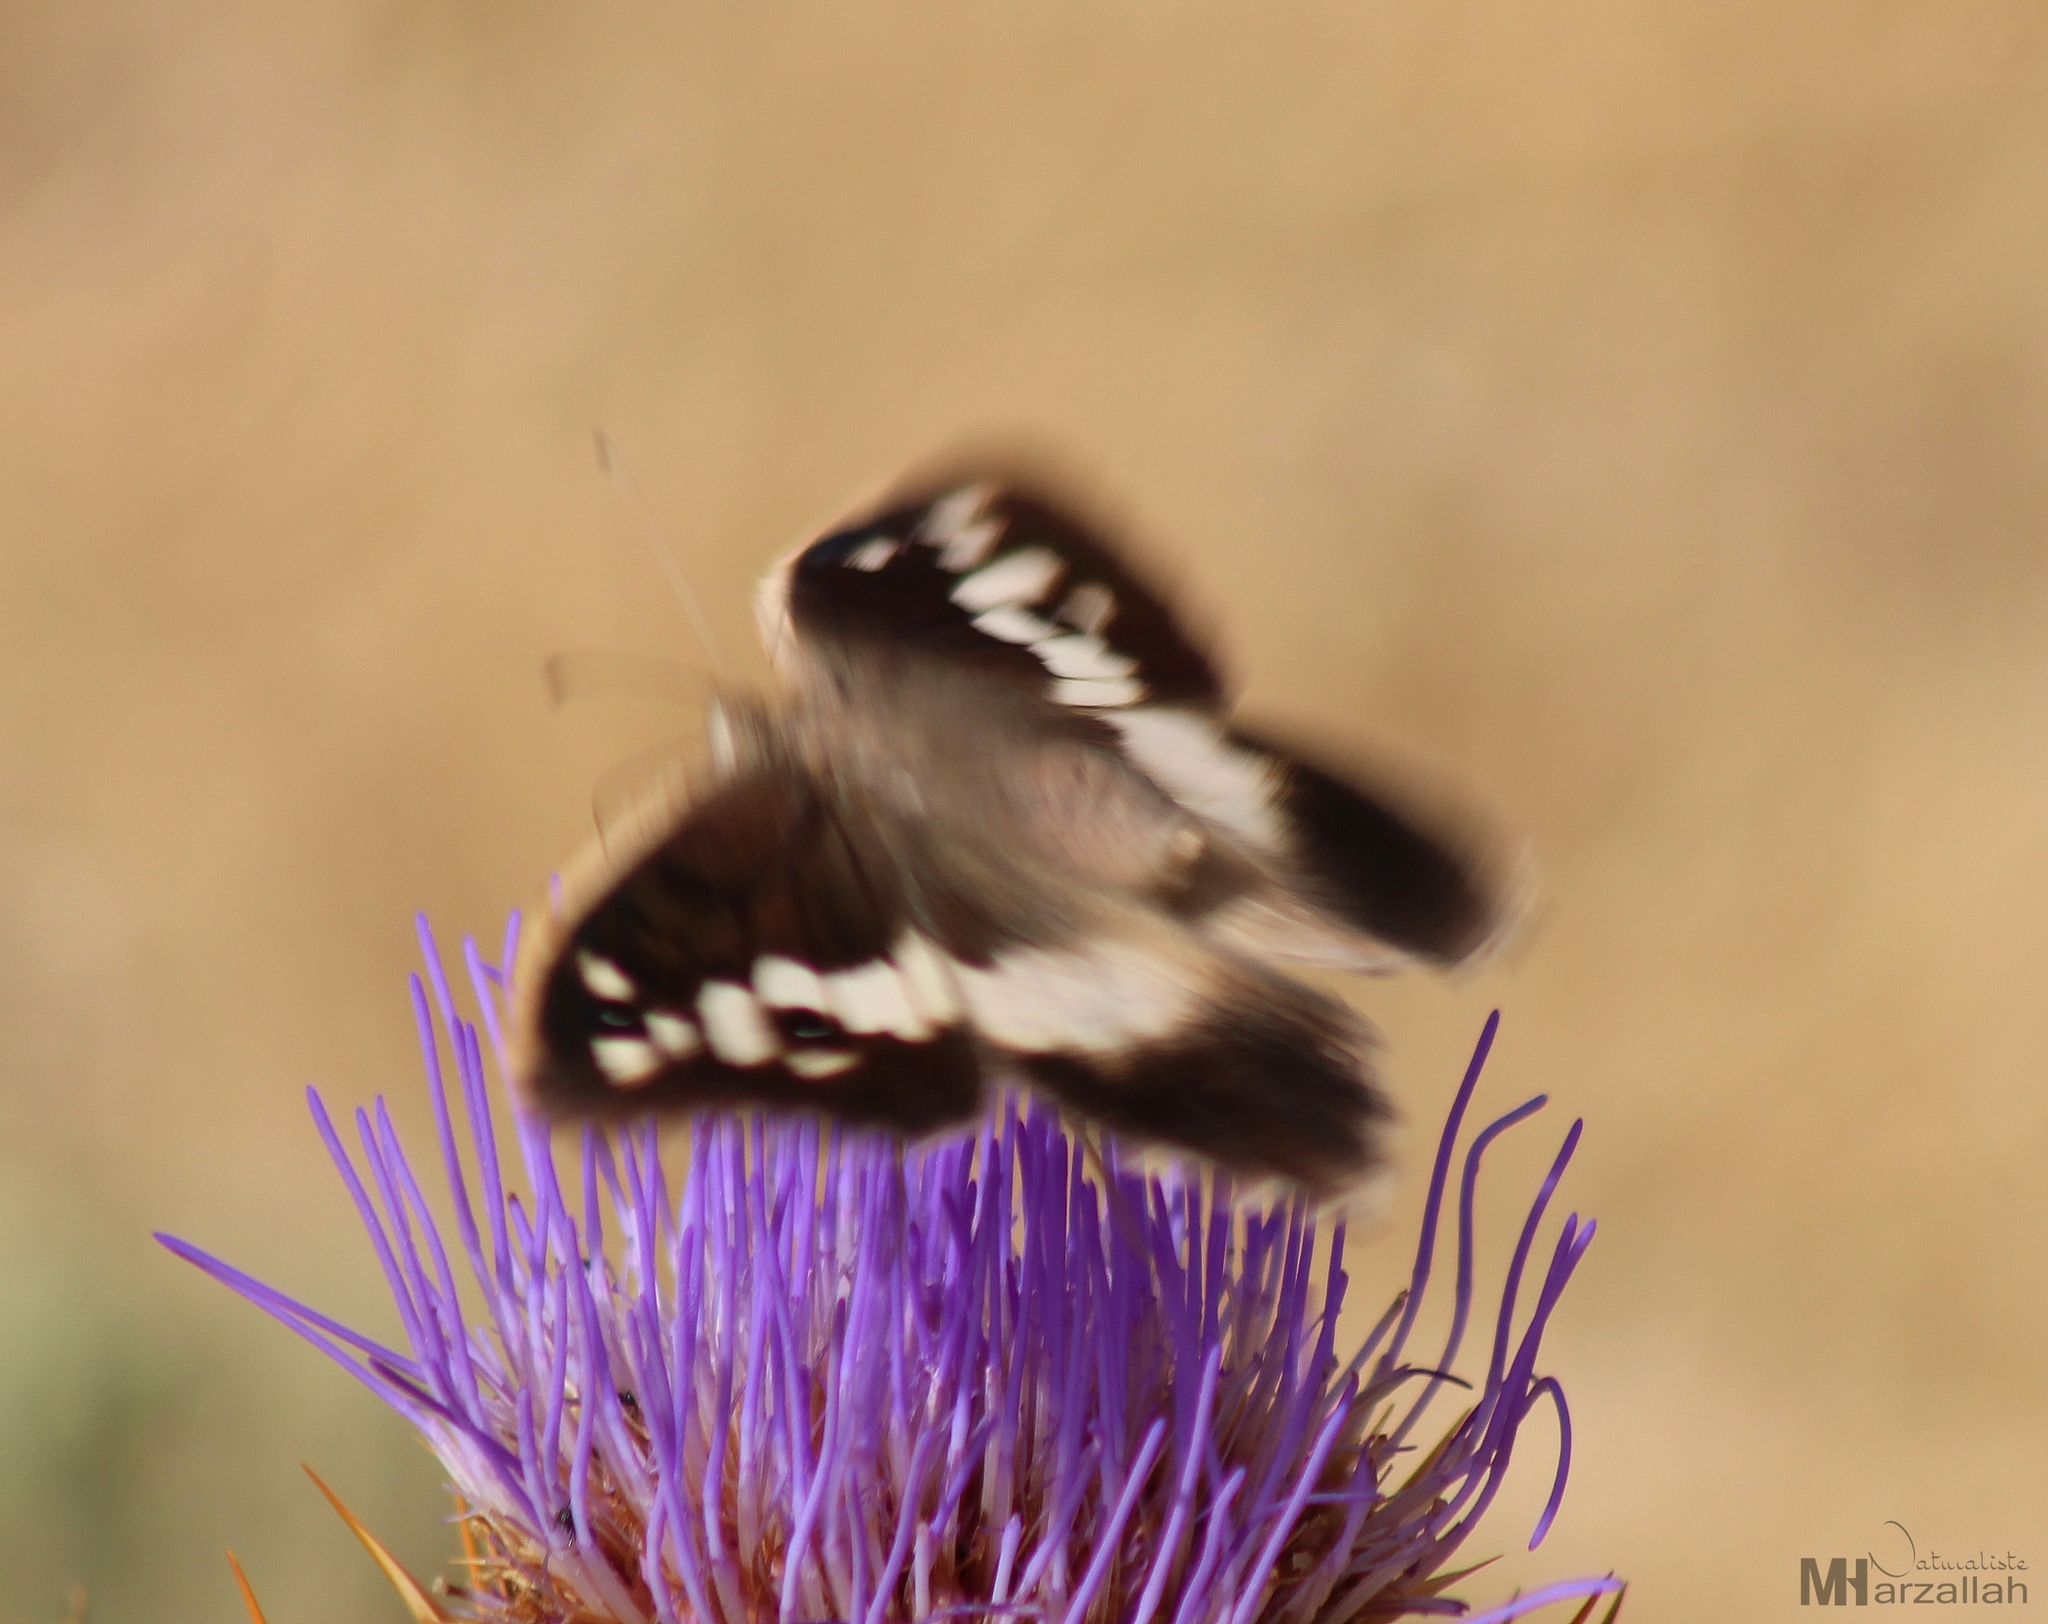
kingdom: Animalia
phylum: Arthropoda
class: Insecta
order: Lepidoptera
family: Nymphalidae
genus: Satyrus
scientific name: Satyrus briseis
